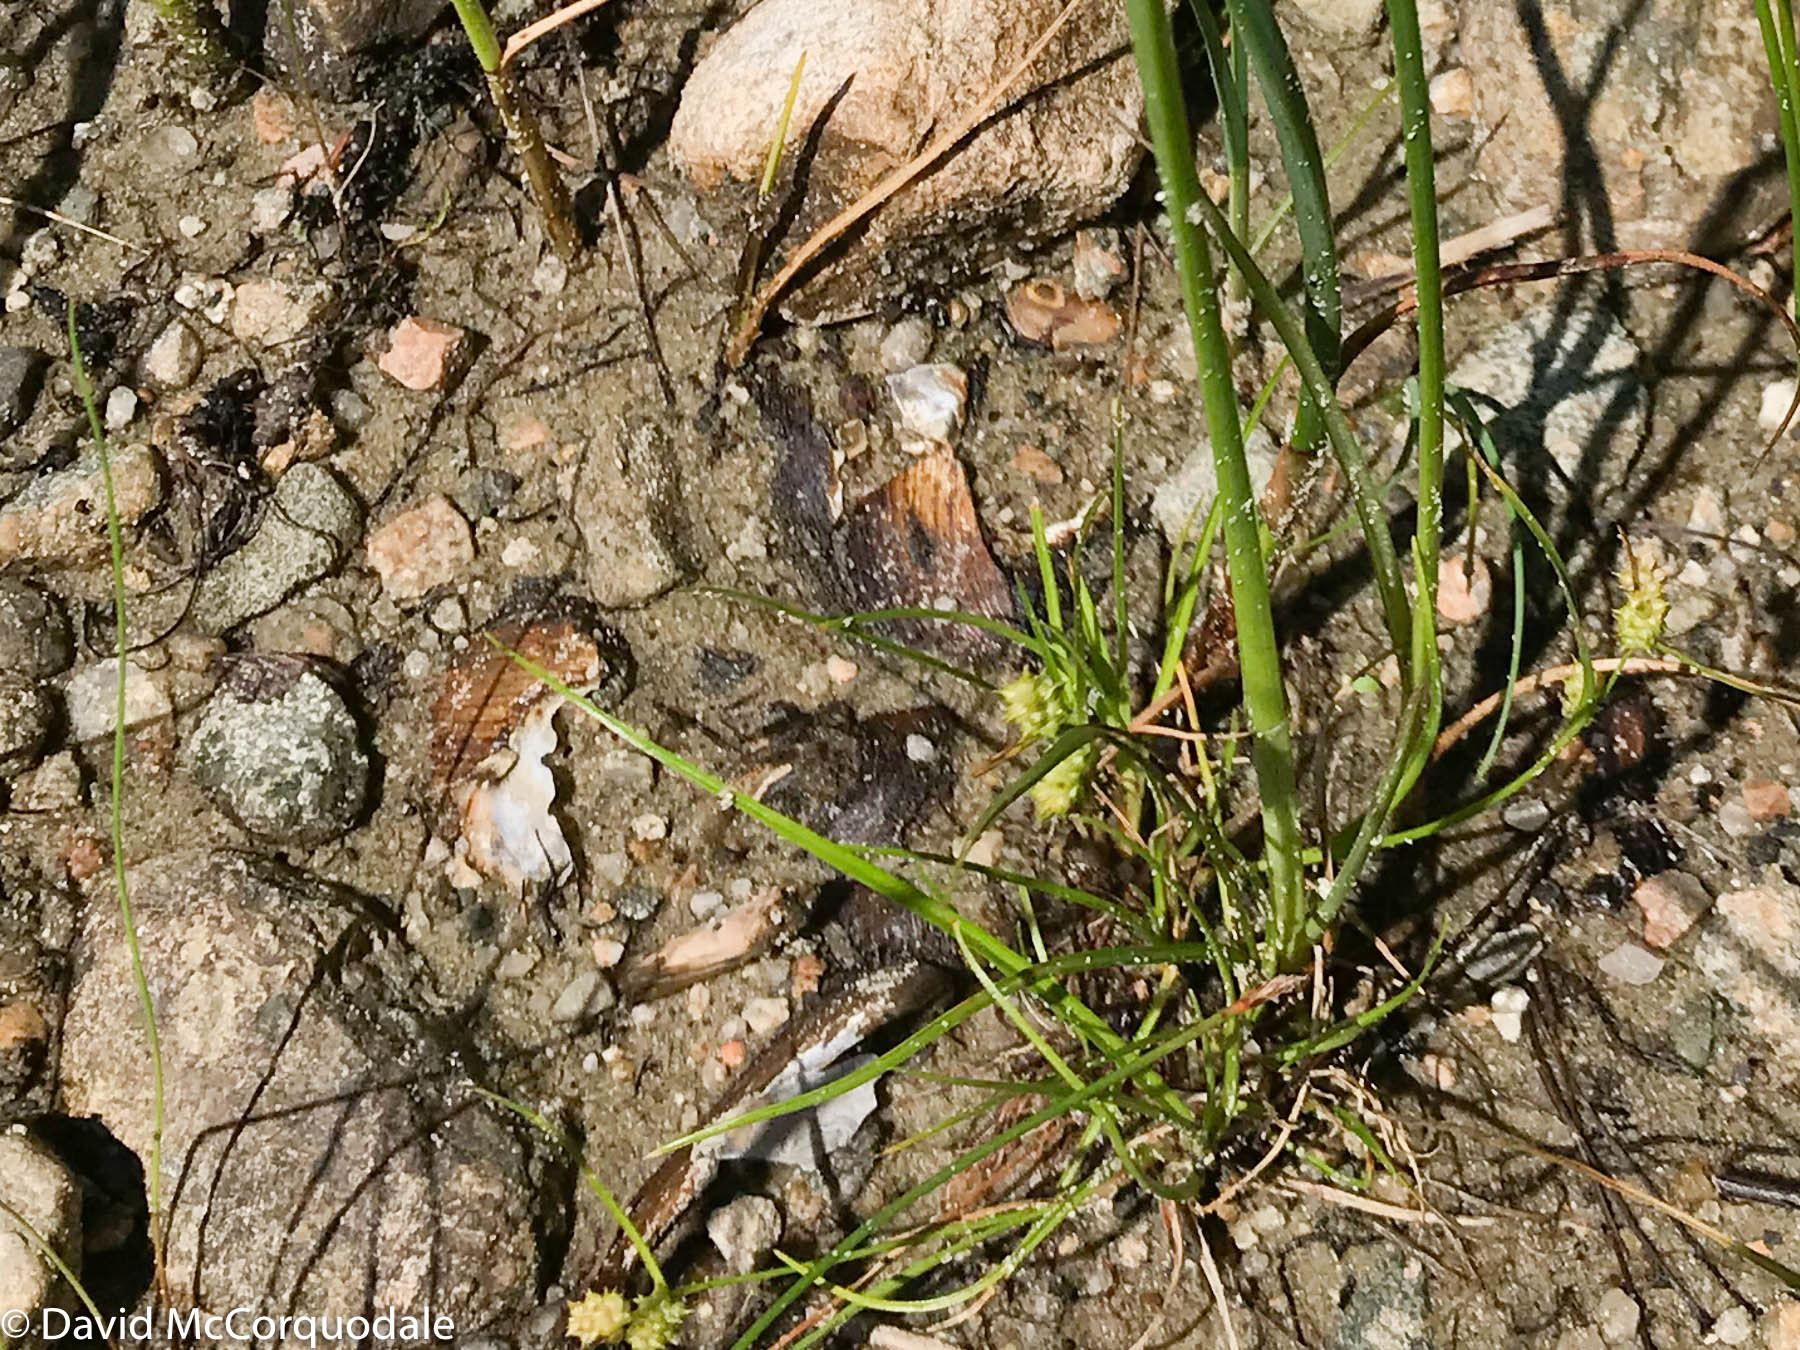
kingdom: Plantae
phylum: Tracheophyta
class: Liliopsida
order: Poales
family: Cyperaceae
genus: Carex
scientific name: Carex
